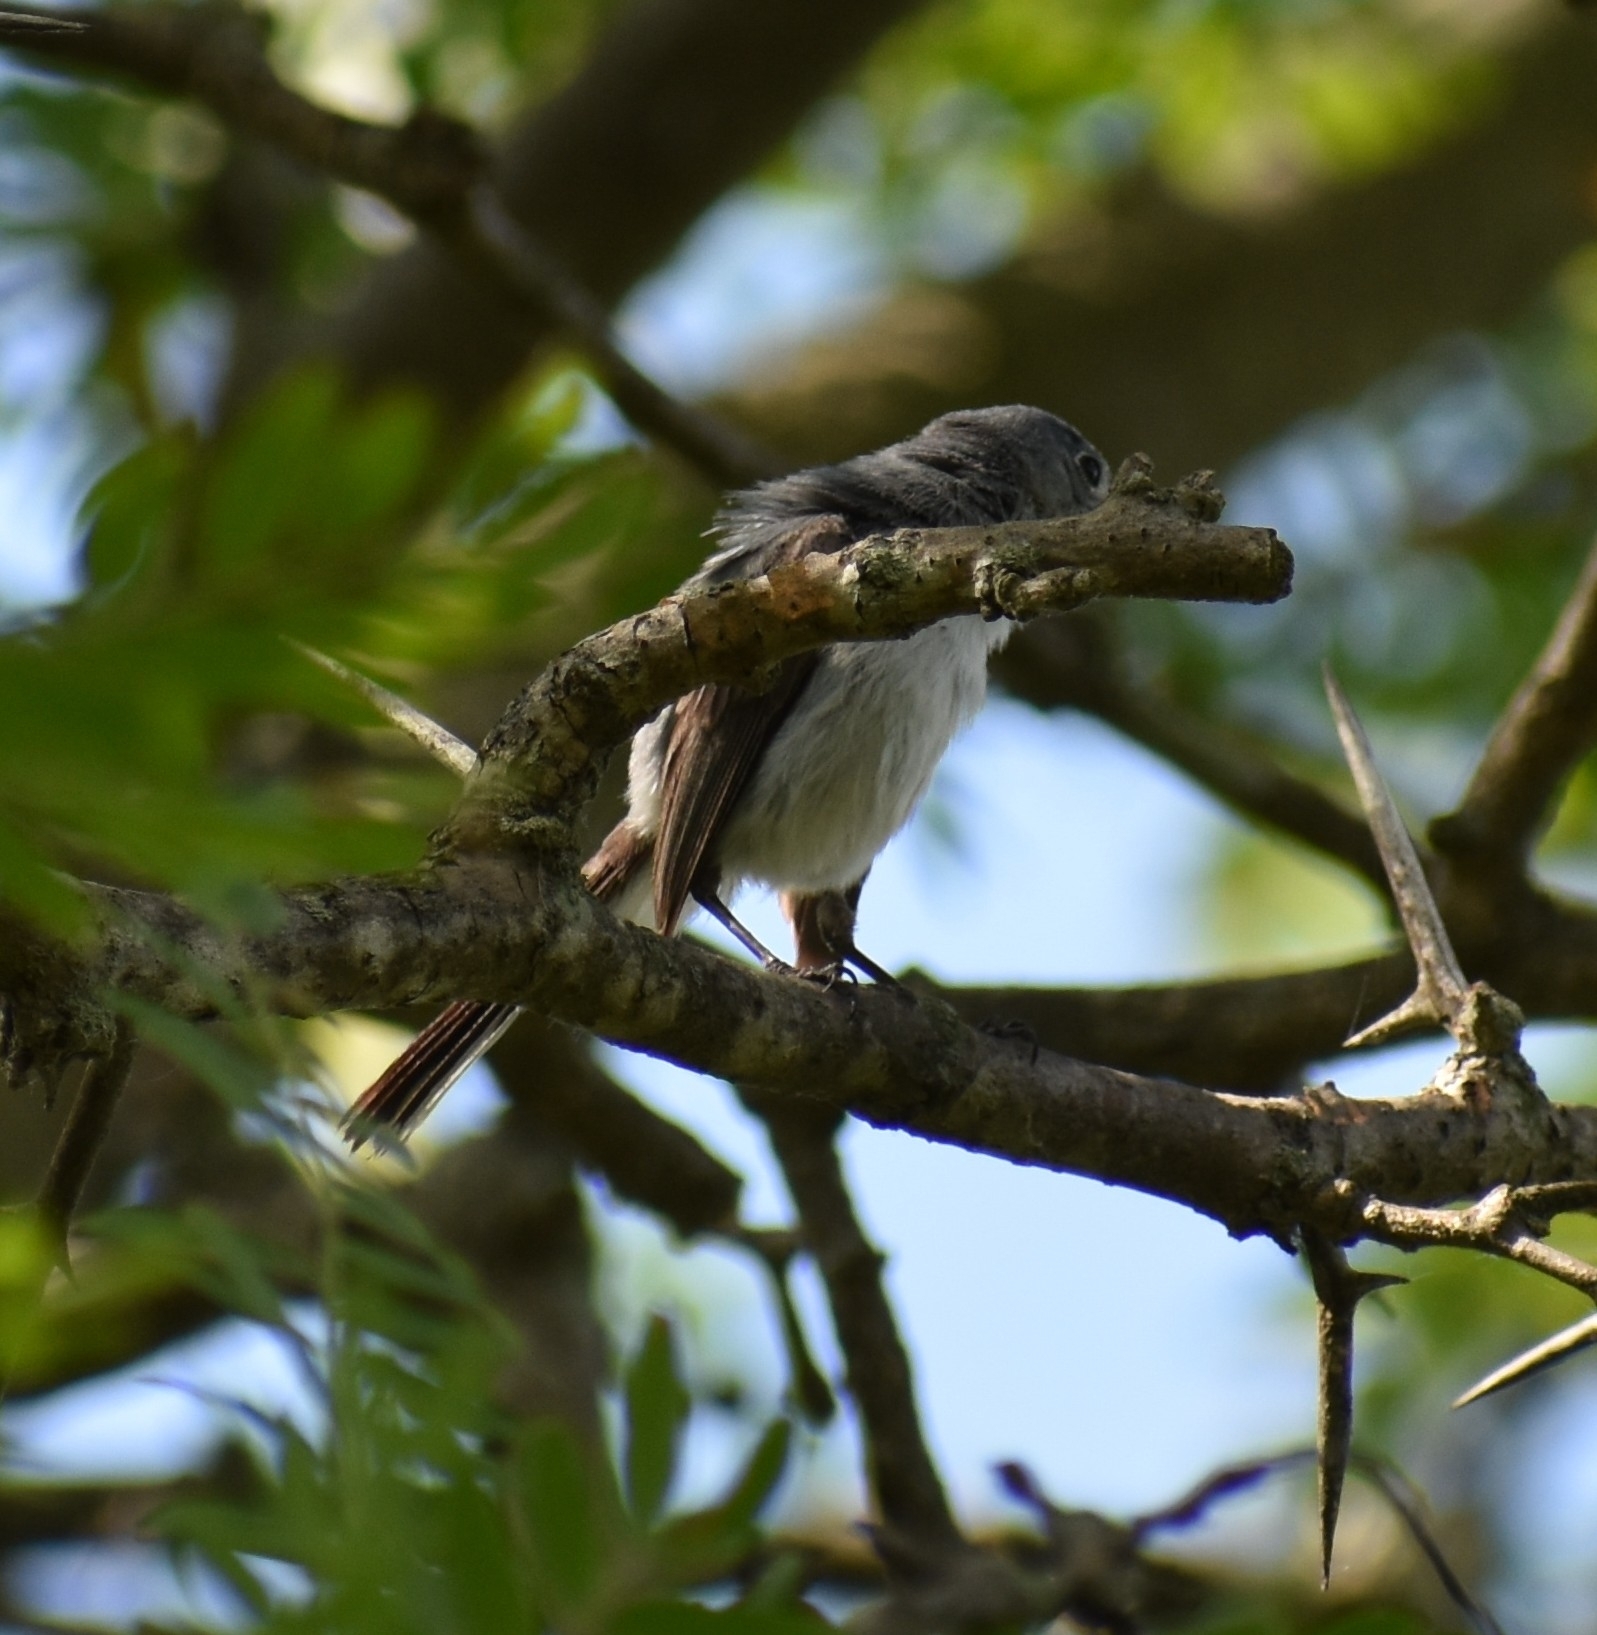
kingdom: Animalia
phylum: Chordata
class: Aves
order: Passeriformes
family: Polioptilidae
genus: Polioptila
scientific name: Polioptila caerulea
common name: Blue-gray gnatcatcher
